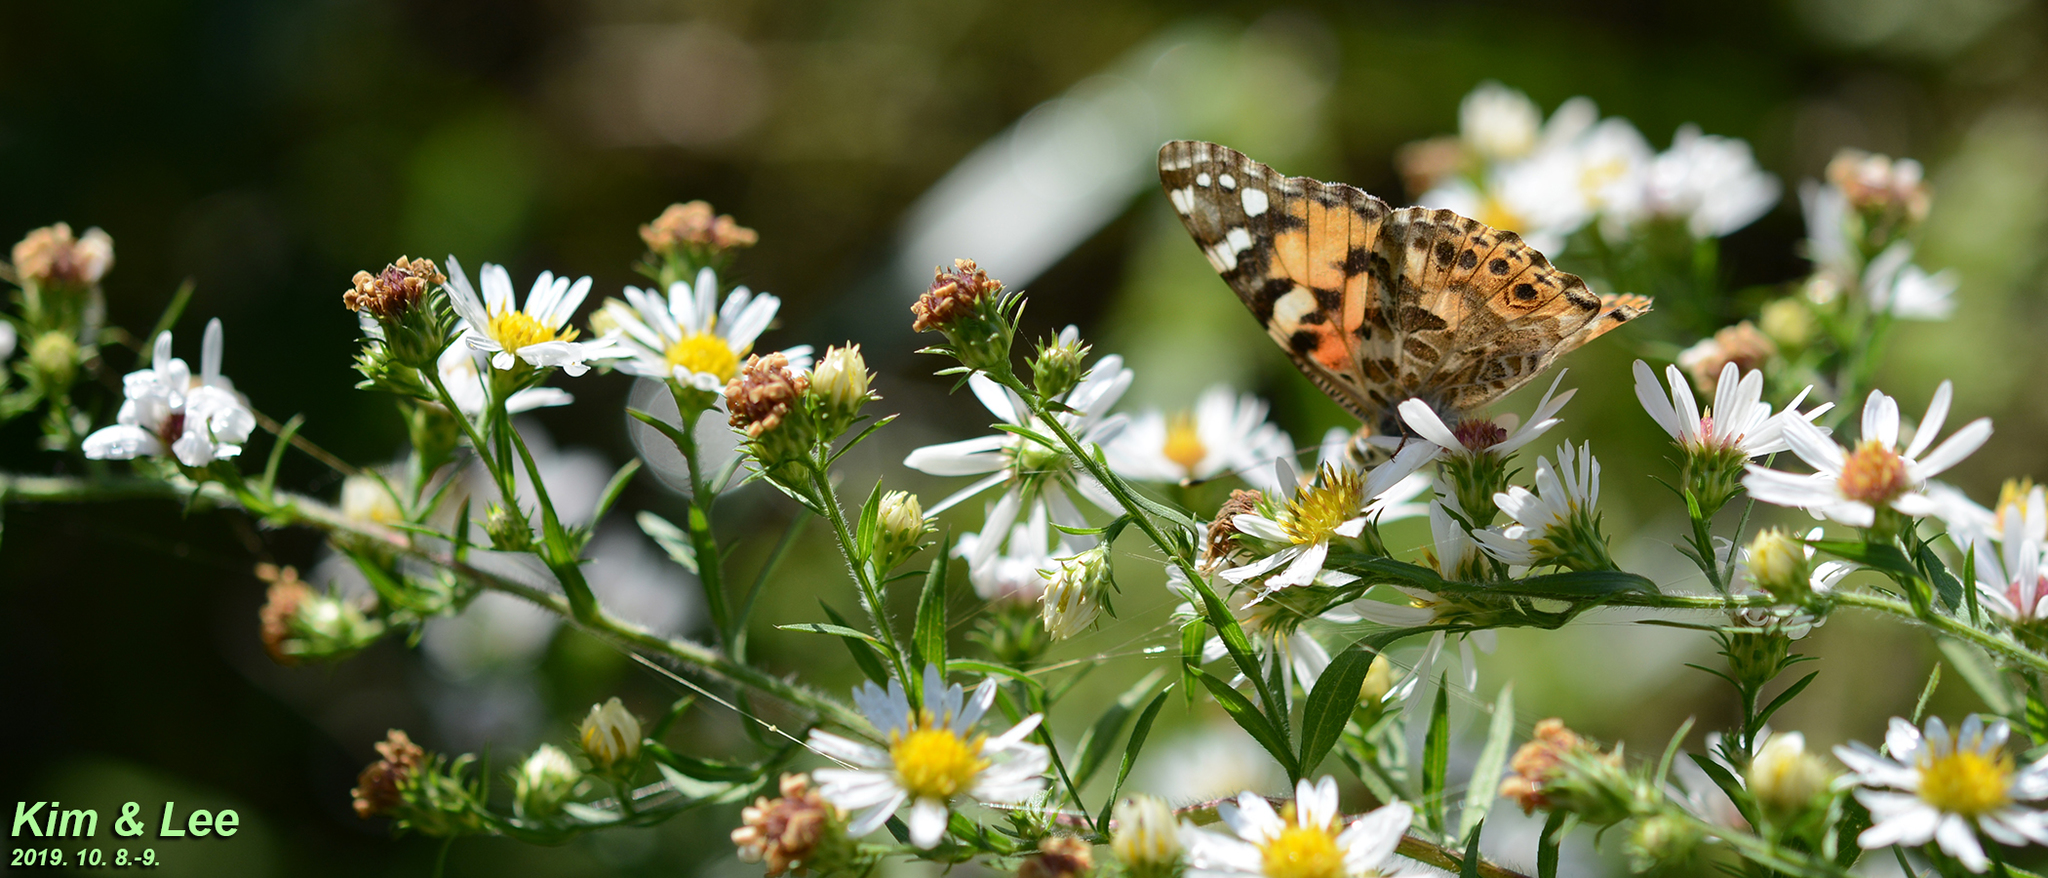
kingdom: Animalia
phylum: Arthropoda
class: Insecta
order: Lepidoptera
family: Nymphalidae
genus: Vanessa
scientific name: Vanessa cardui
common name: Painted lady
